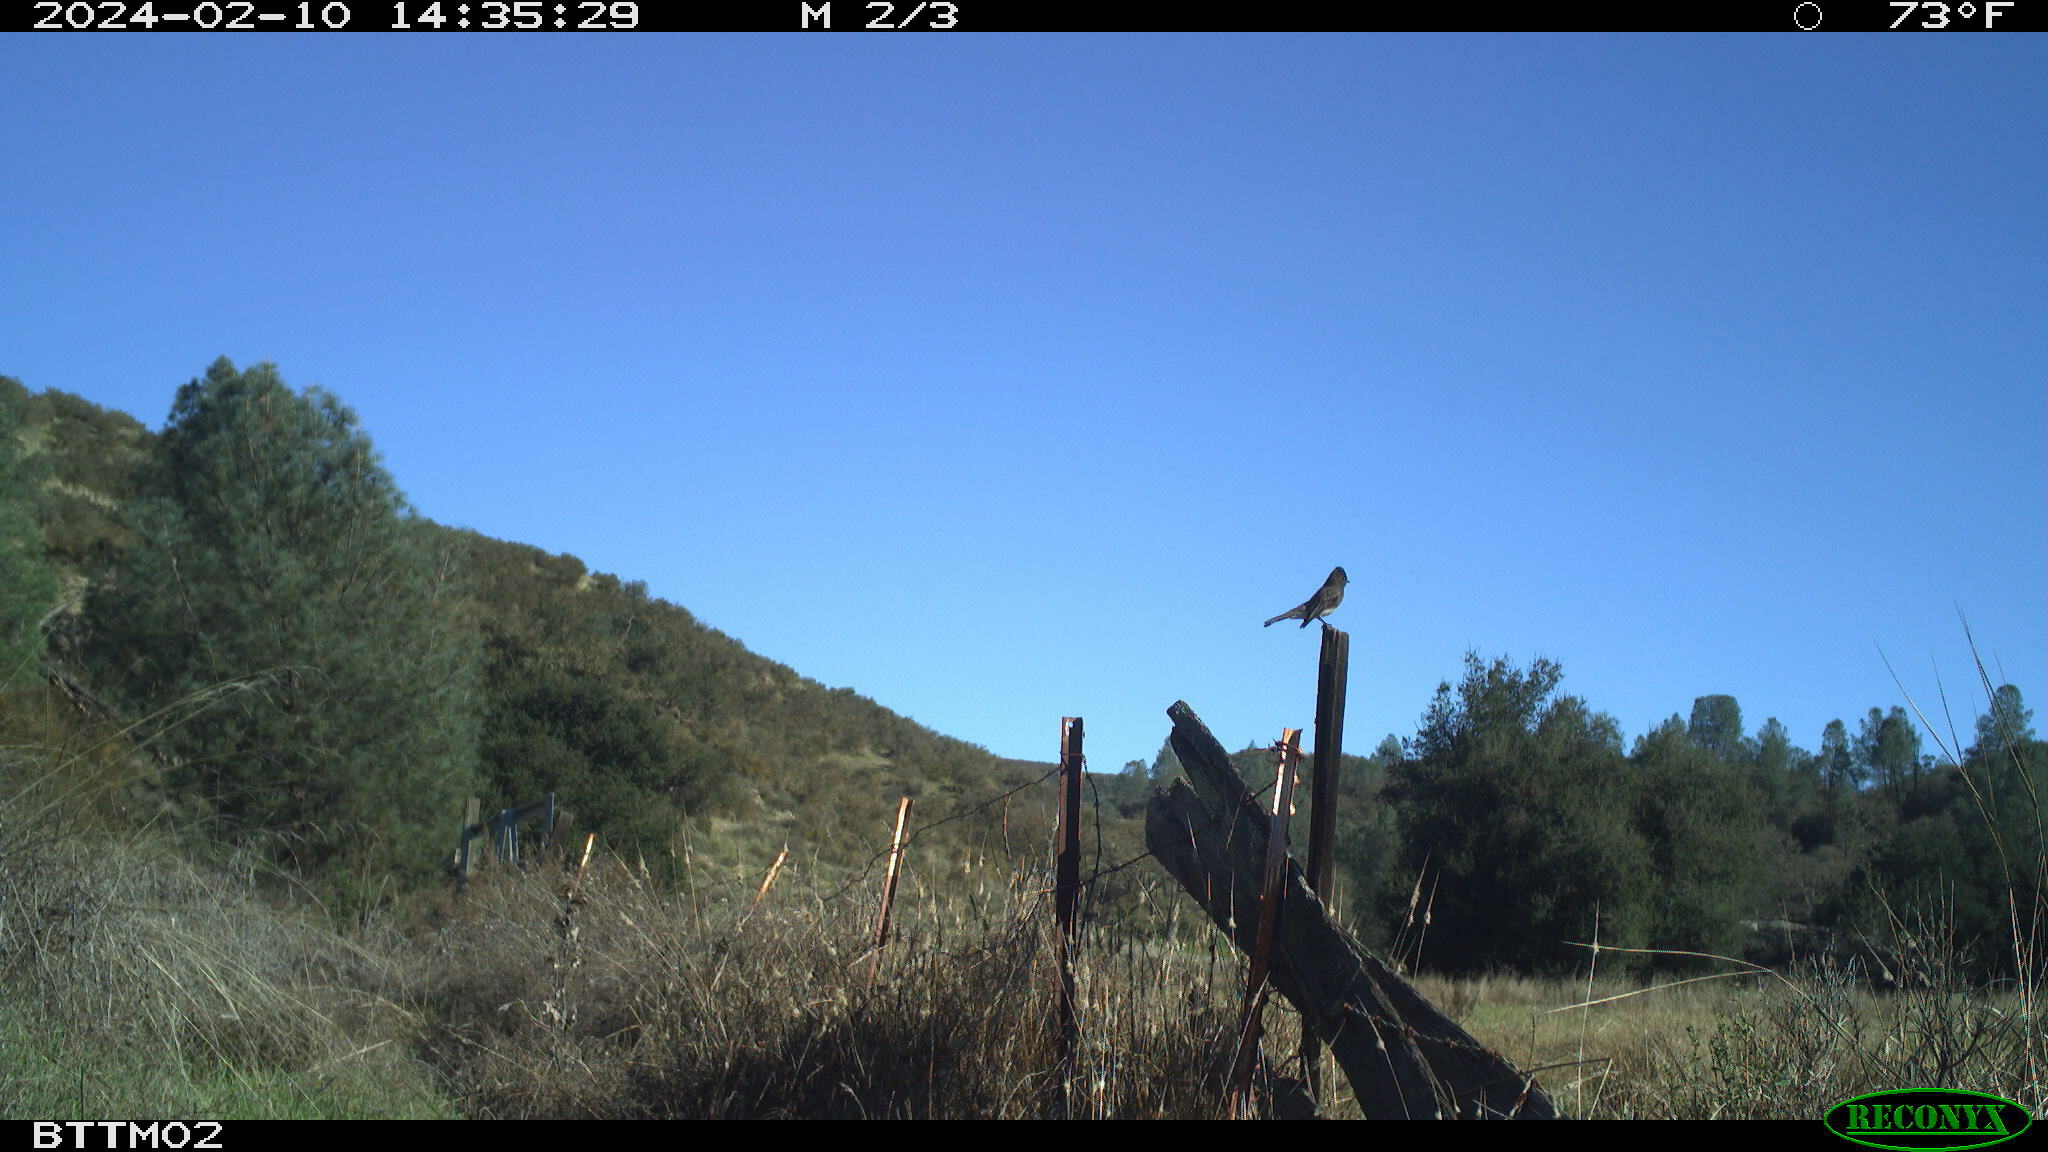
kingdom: Animalia
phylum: Chordata
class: Aves
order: Passeriformes
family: Tyrannidae
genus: Sayornis
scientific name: Sayornis nigricans
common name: Black phoebe
